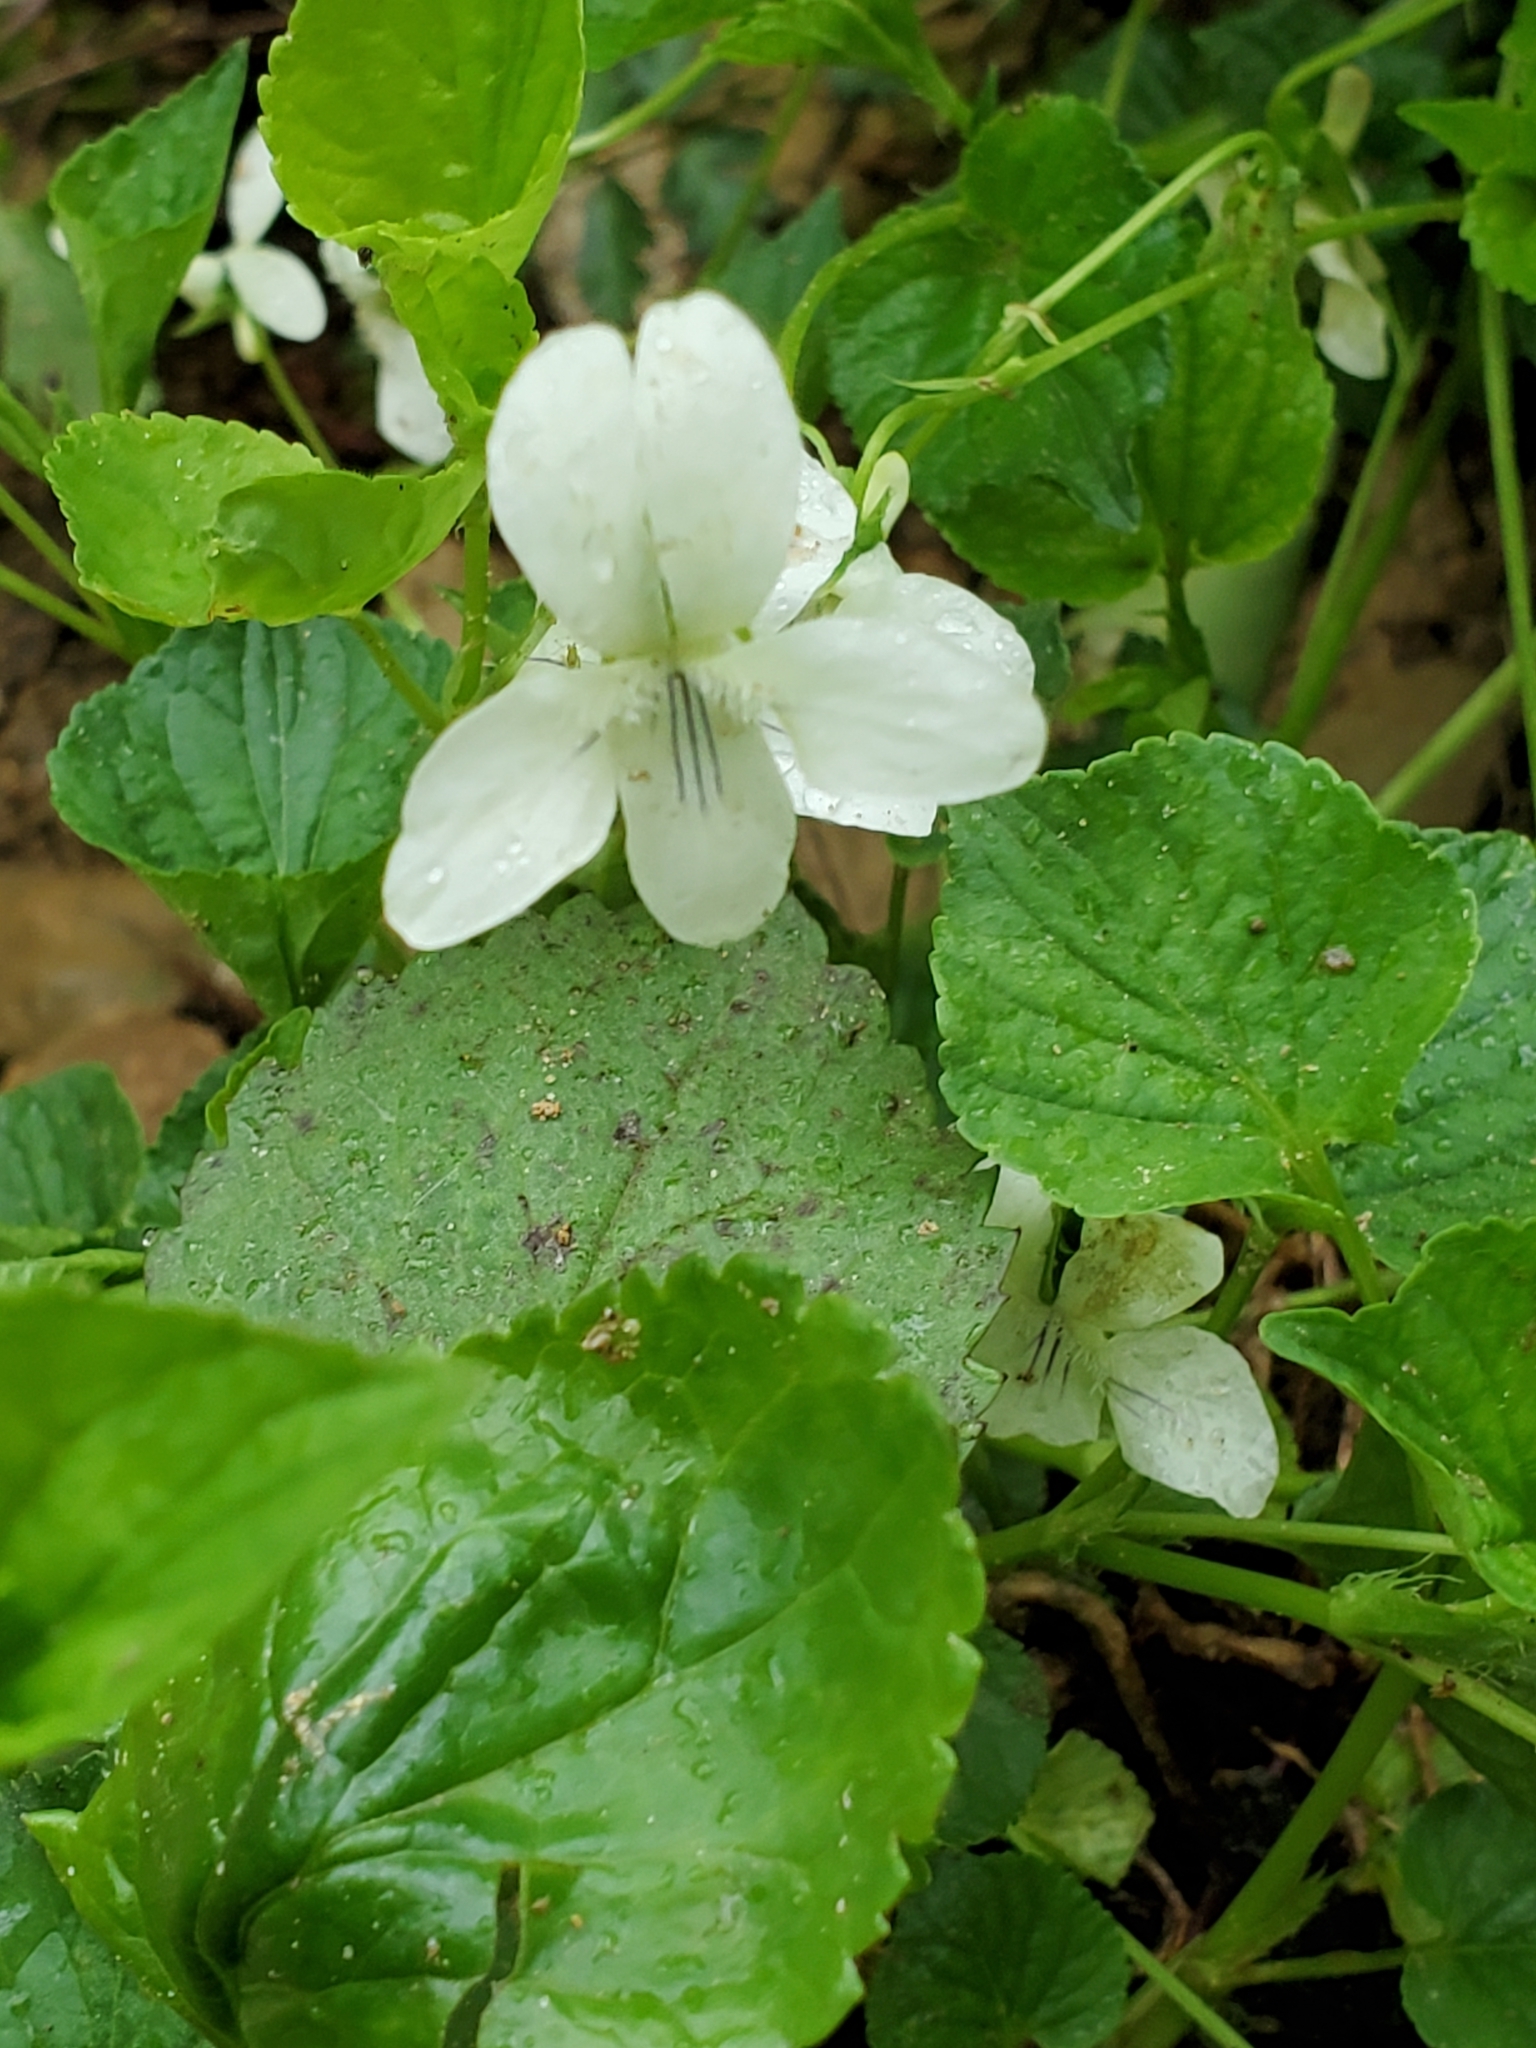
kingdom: Plantae
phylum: Tracheophyta
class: Magnoliopsida
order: Malpighiales
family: Violaceae
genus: Viola
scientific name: Viola striata
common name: Cream violet
